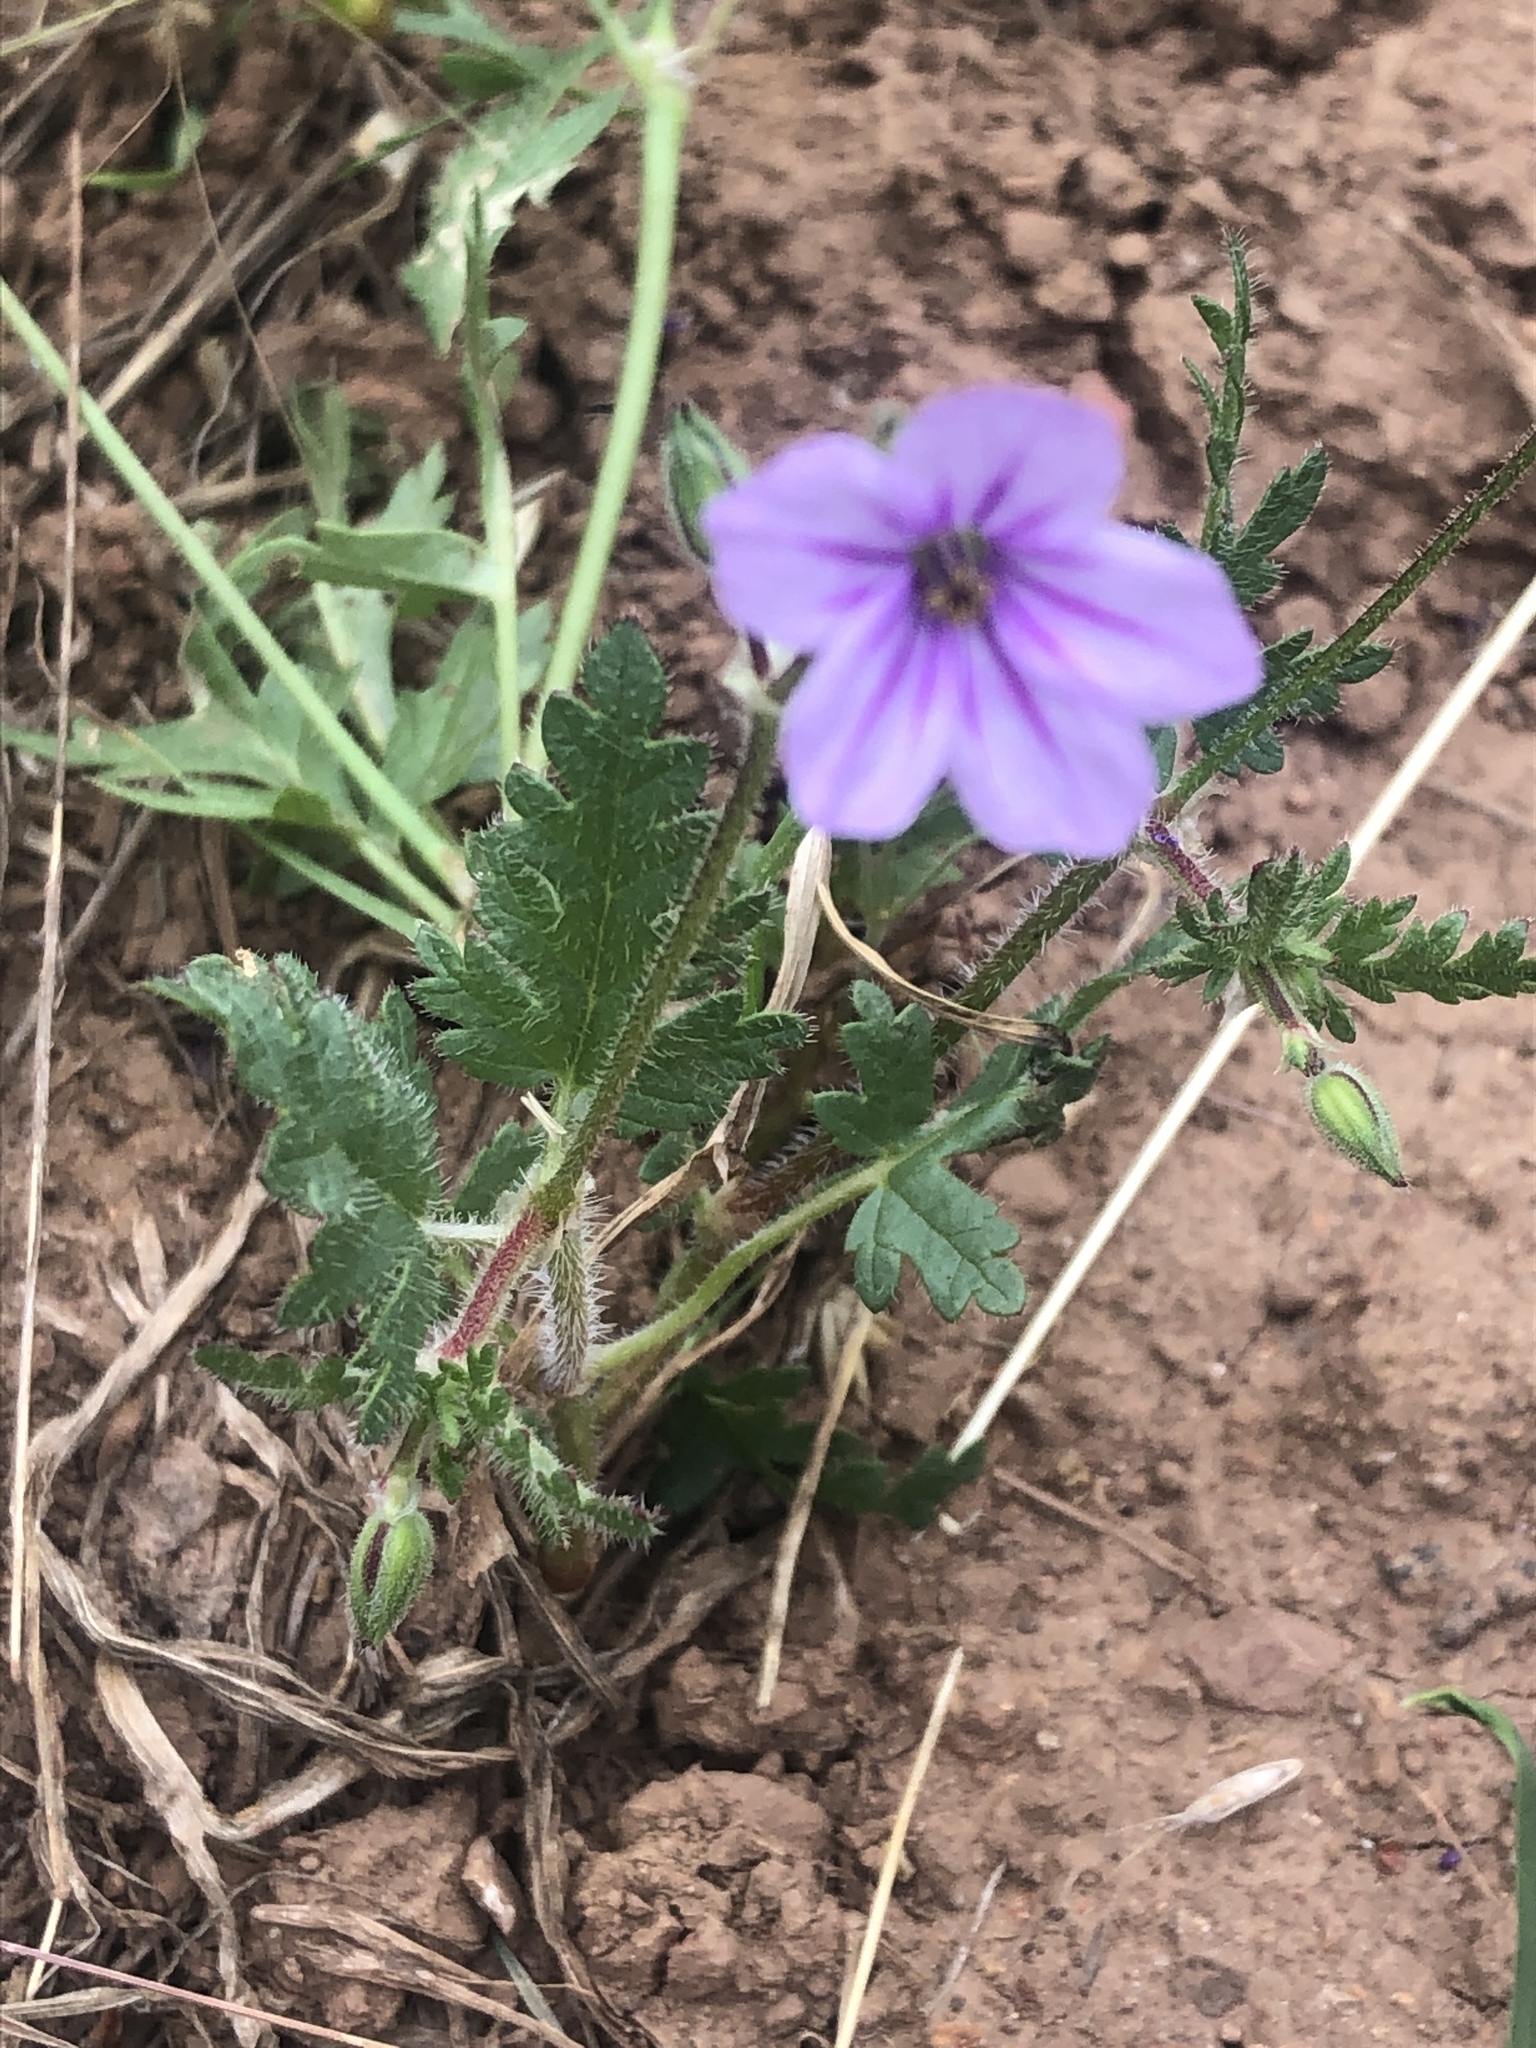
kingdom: Plantae
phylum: Tracheophyta
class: Magnoliopsida
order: Geraniales
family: Geraniaceae
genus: Erodium
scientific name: Erodium botrys
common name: Mediterranean stork's-bill
